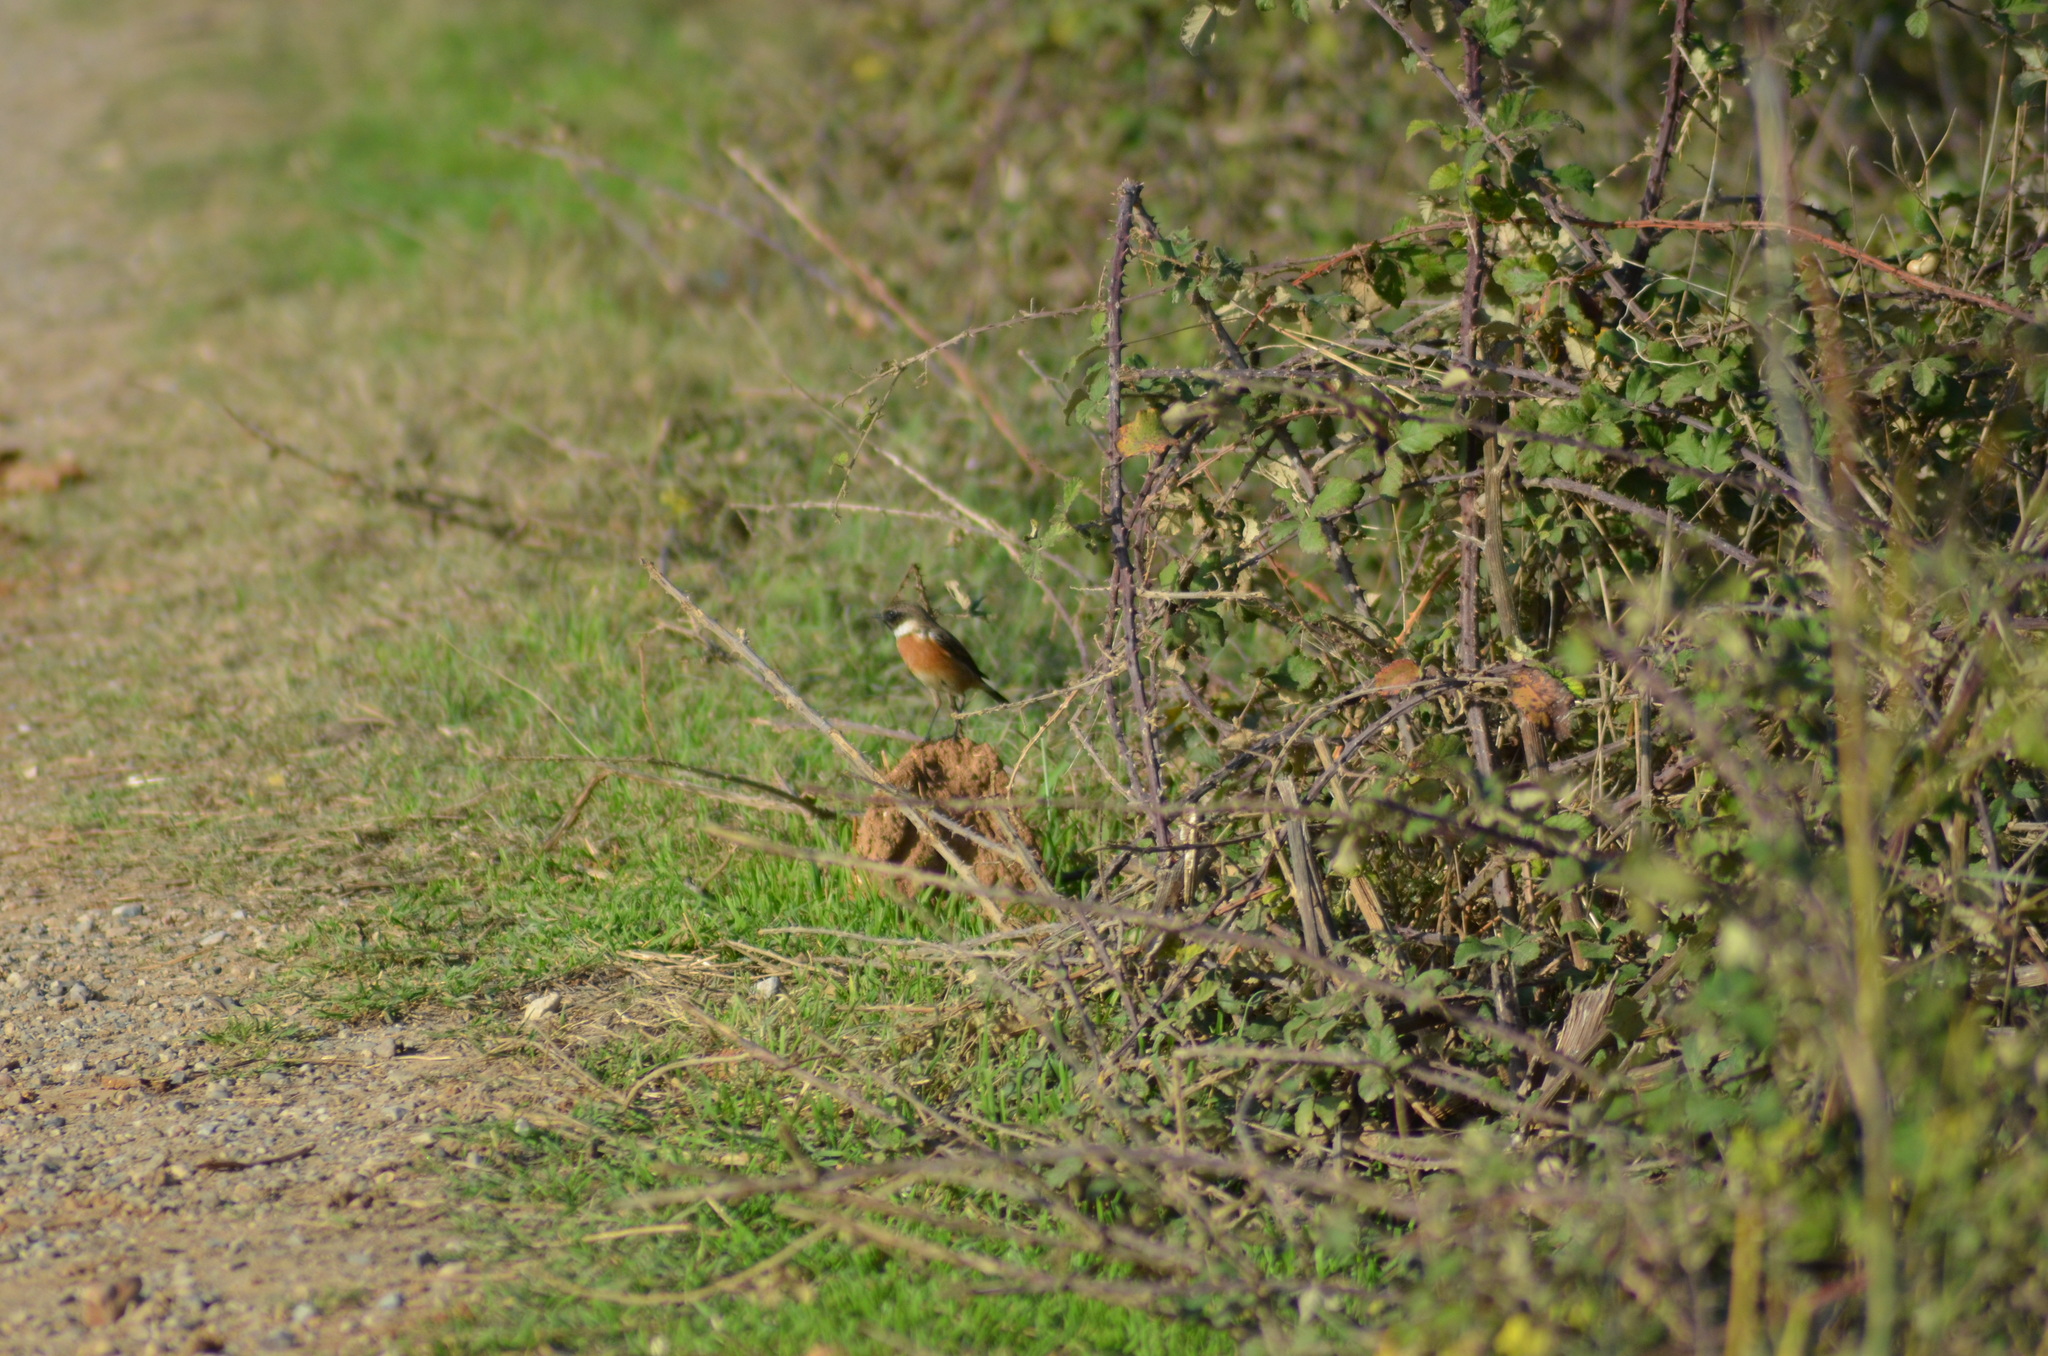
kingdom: Animalia
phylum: Chordata
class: Aves
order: Passeriformes
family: Muscicapidae
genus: Saxicola
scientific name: Saxicola rubicola
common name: European stonechat
